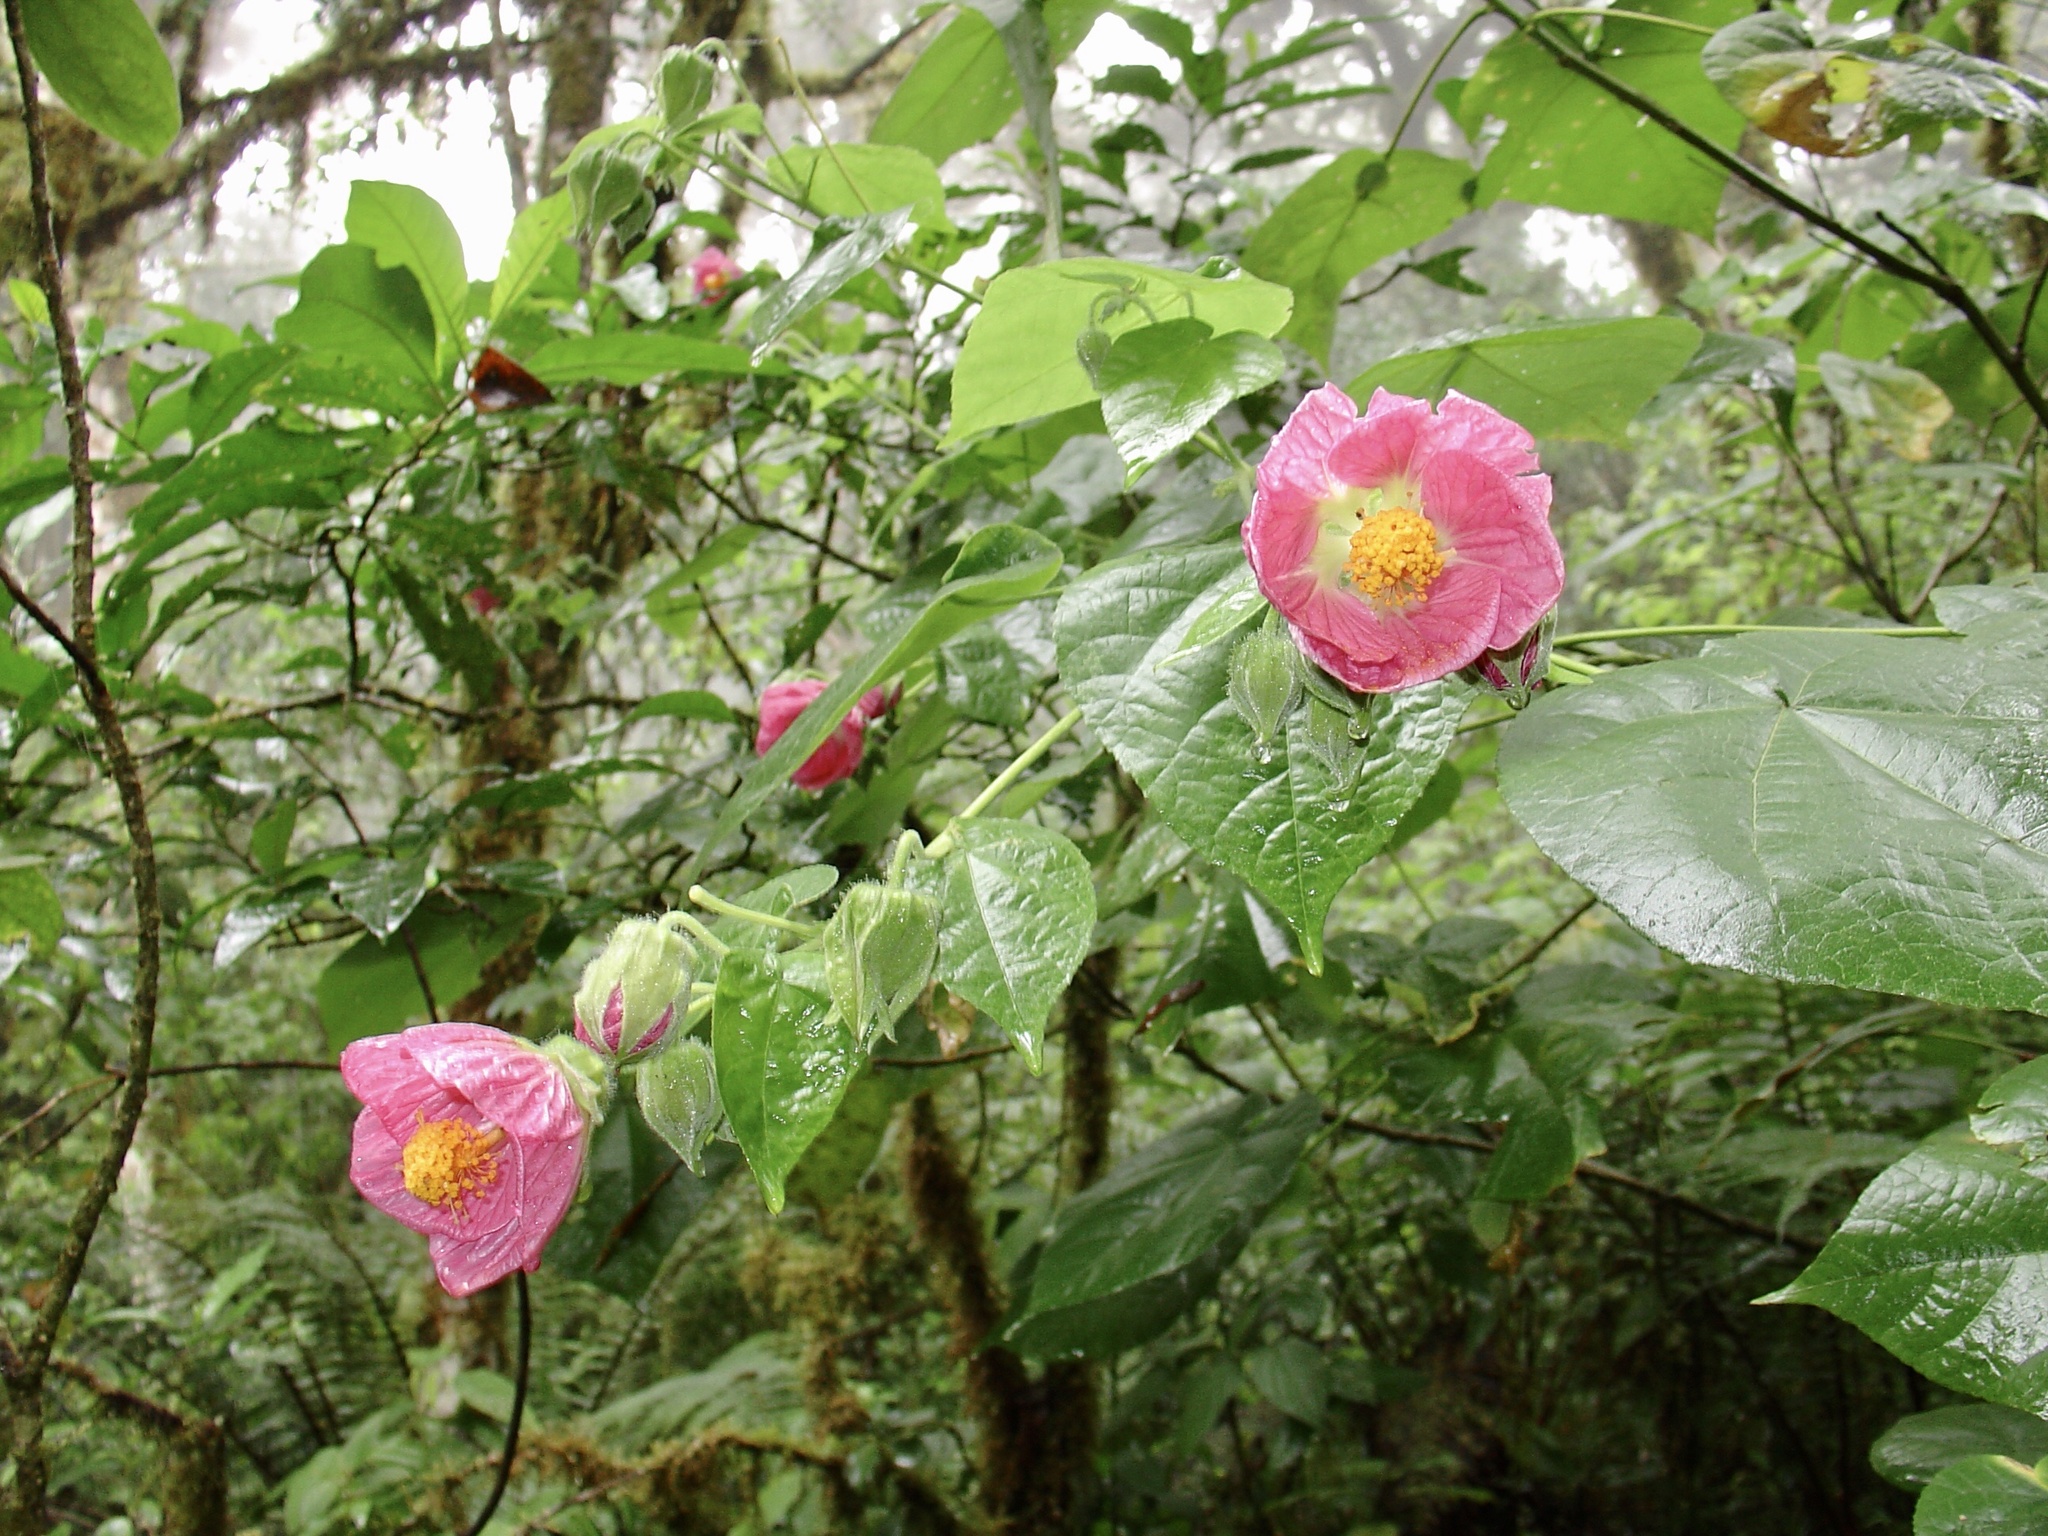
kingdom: Plantae
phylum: Tracheophyta
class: Magnoliopsida
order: Malvales
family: Malvaceae
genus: Callianthe
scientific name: Callianthe jujuiensis
